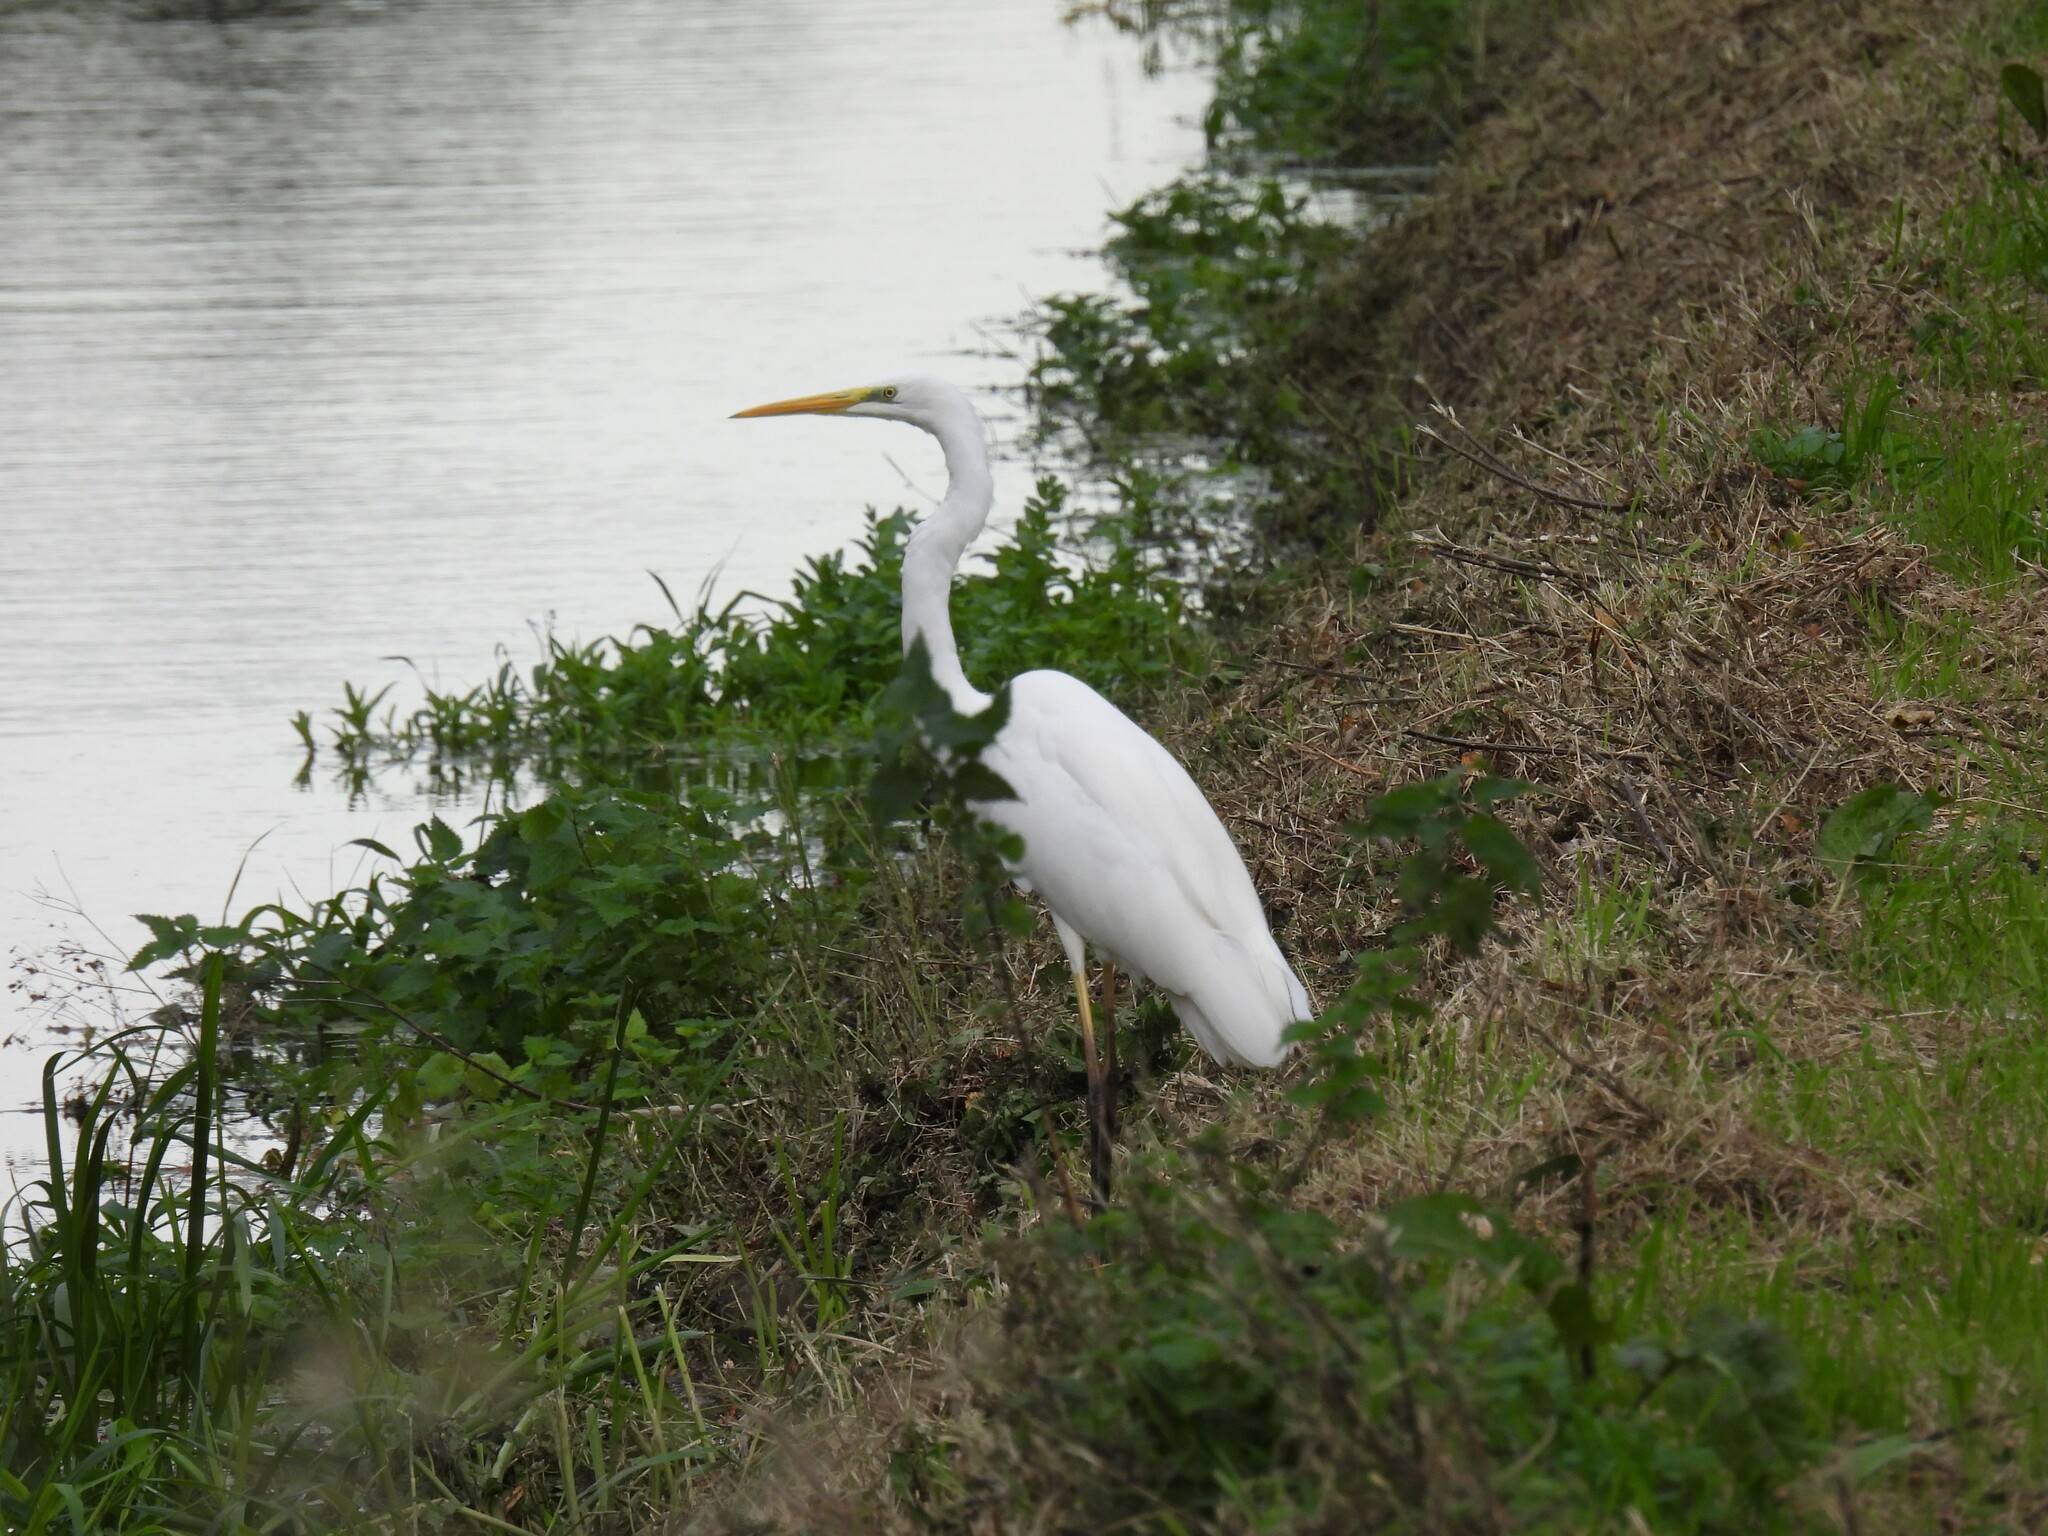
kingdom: Animalia
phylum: Chordata
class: Aves
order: Pelecaniformes
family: Ardeidae
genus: Ardea
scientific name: Ardea alba
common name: Great egret
